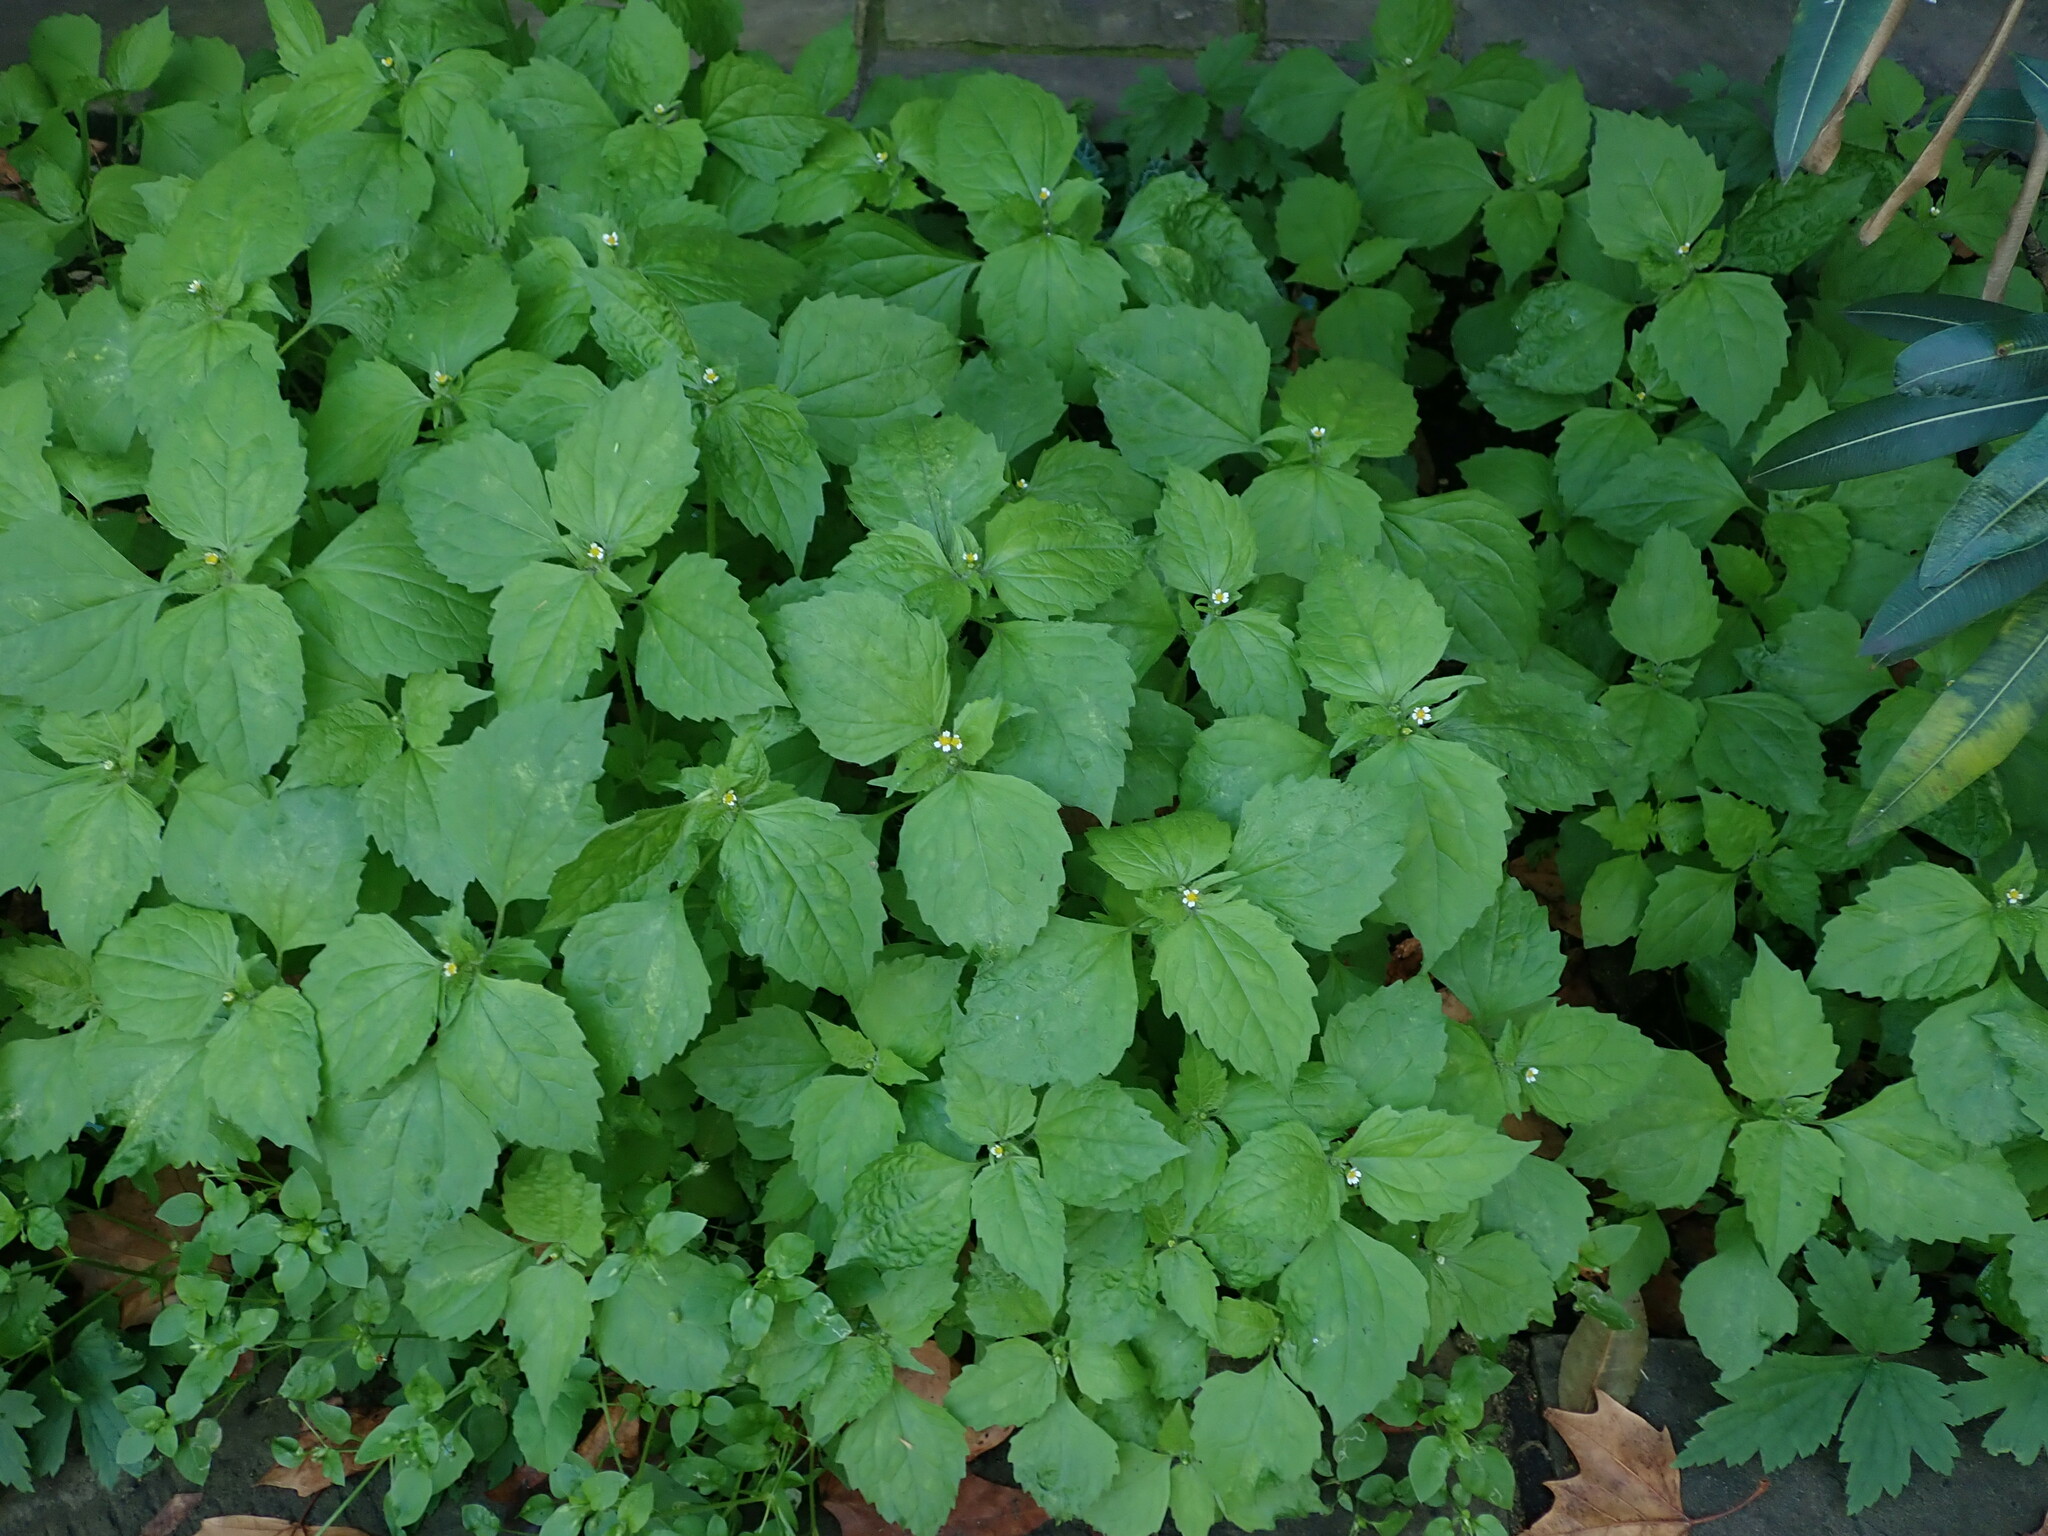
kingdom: Plantae
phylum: Tracheophyta
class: Magnoliopsida
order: Asterales
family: Asteraceae
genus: Galinsoga
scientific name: Galinsoga quadriradiata
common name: Shaggy soldier
